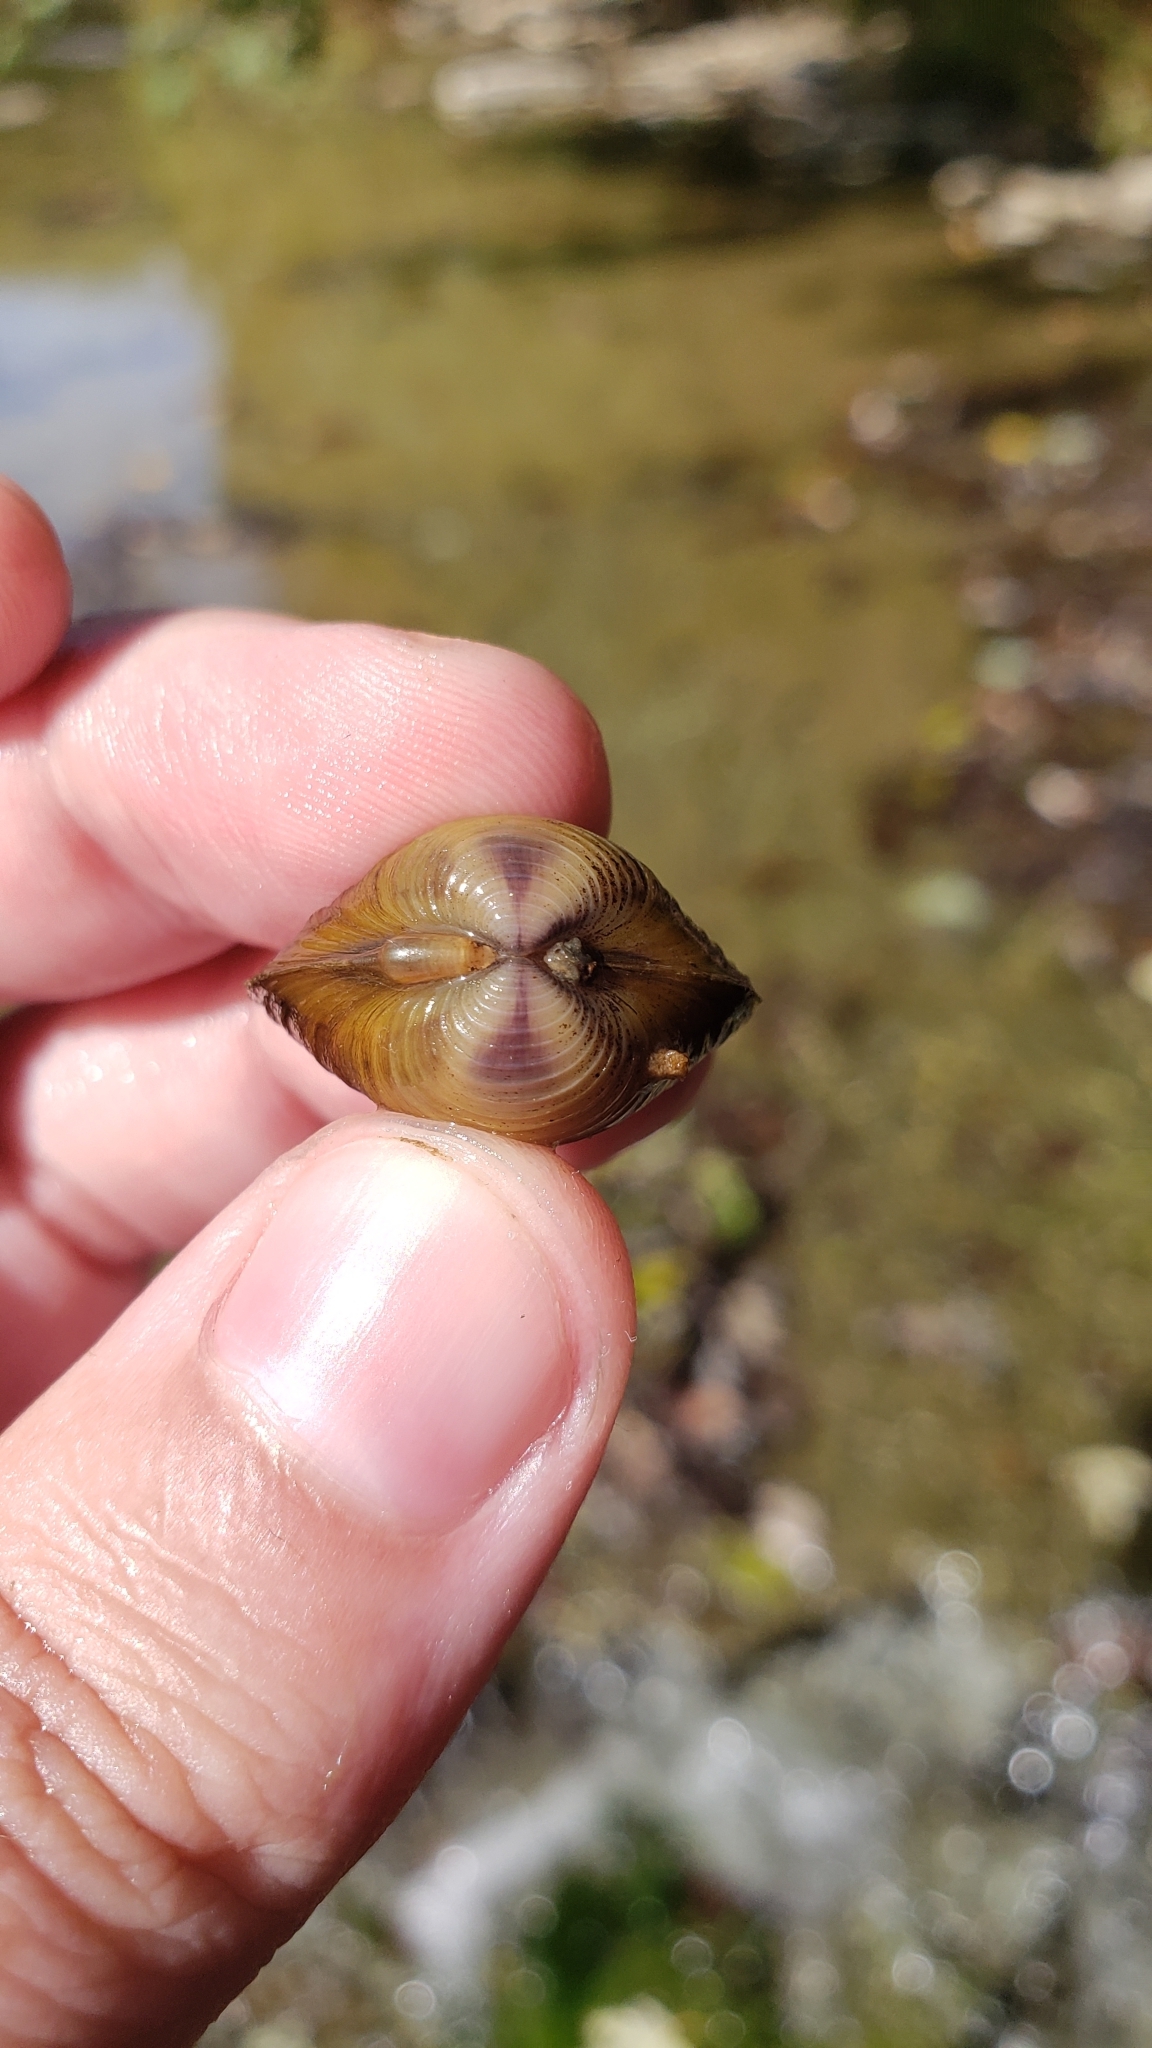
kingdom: Animalia
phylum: Mollusca
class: Bivalvia
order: Venerida
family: Cyrenidae
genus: Corbicula
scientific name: Corbicula fluminea
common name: Asian clam
